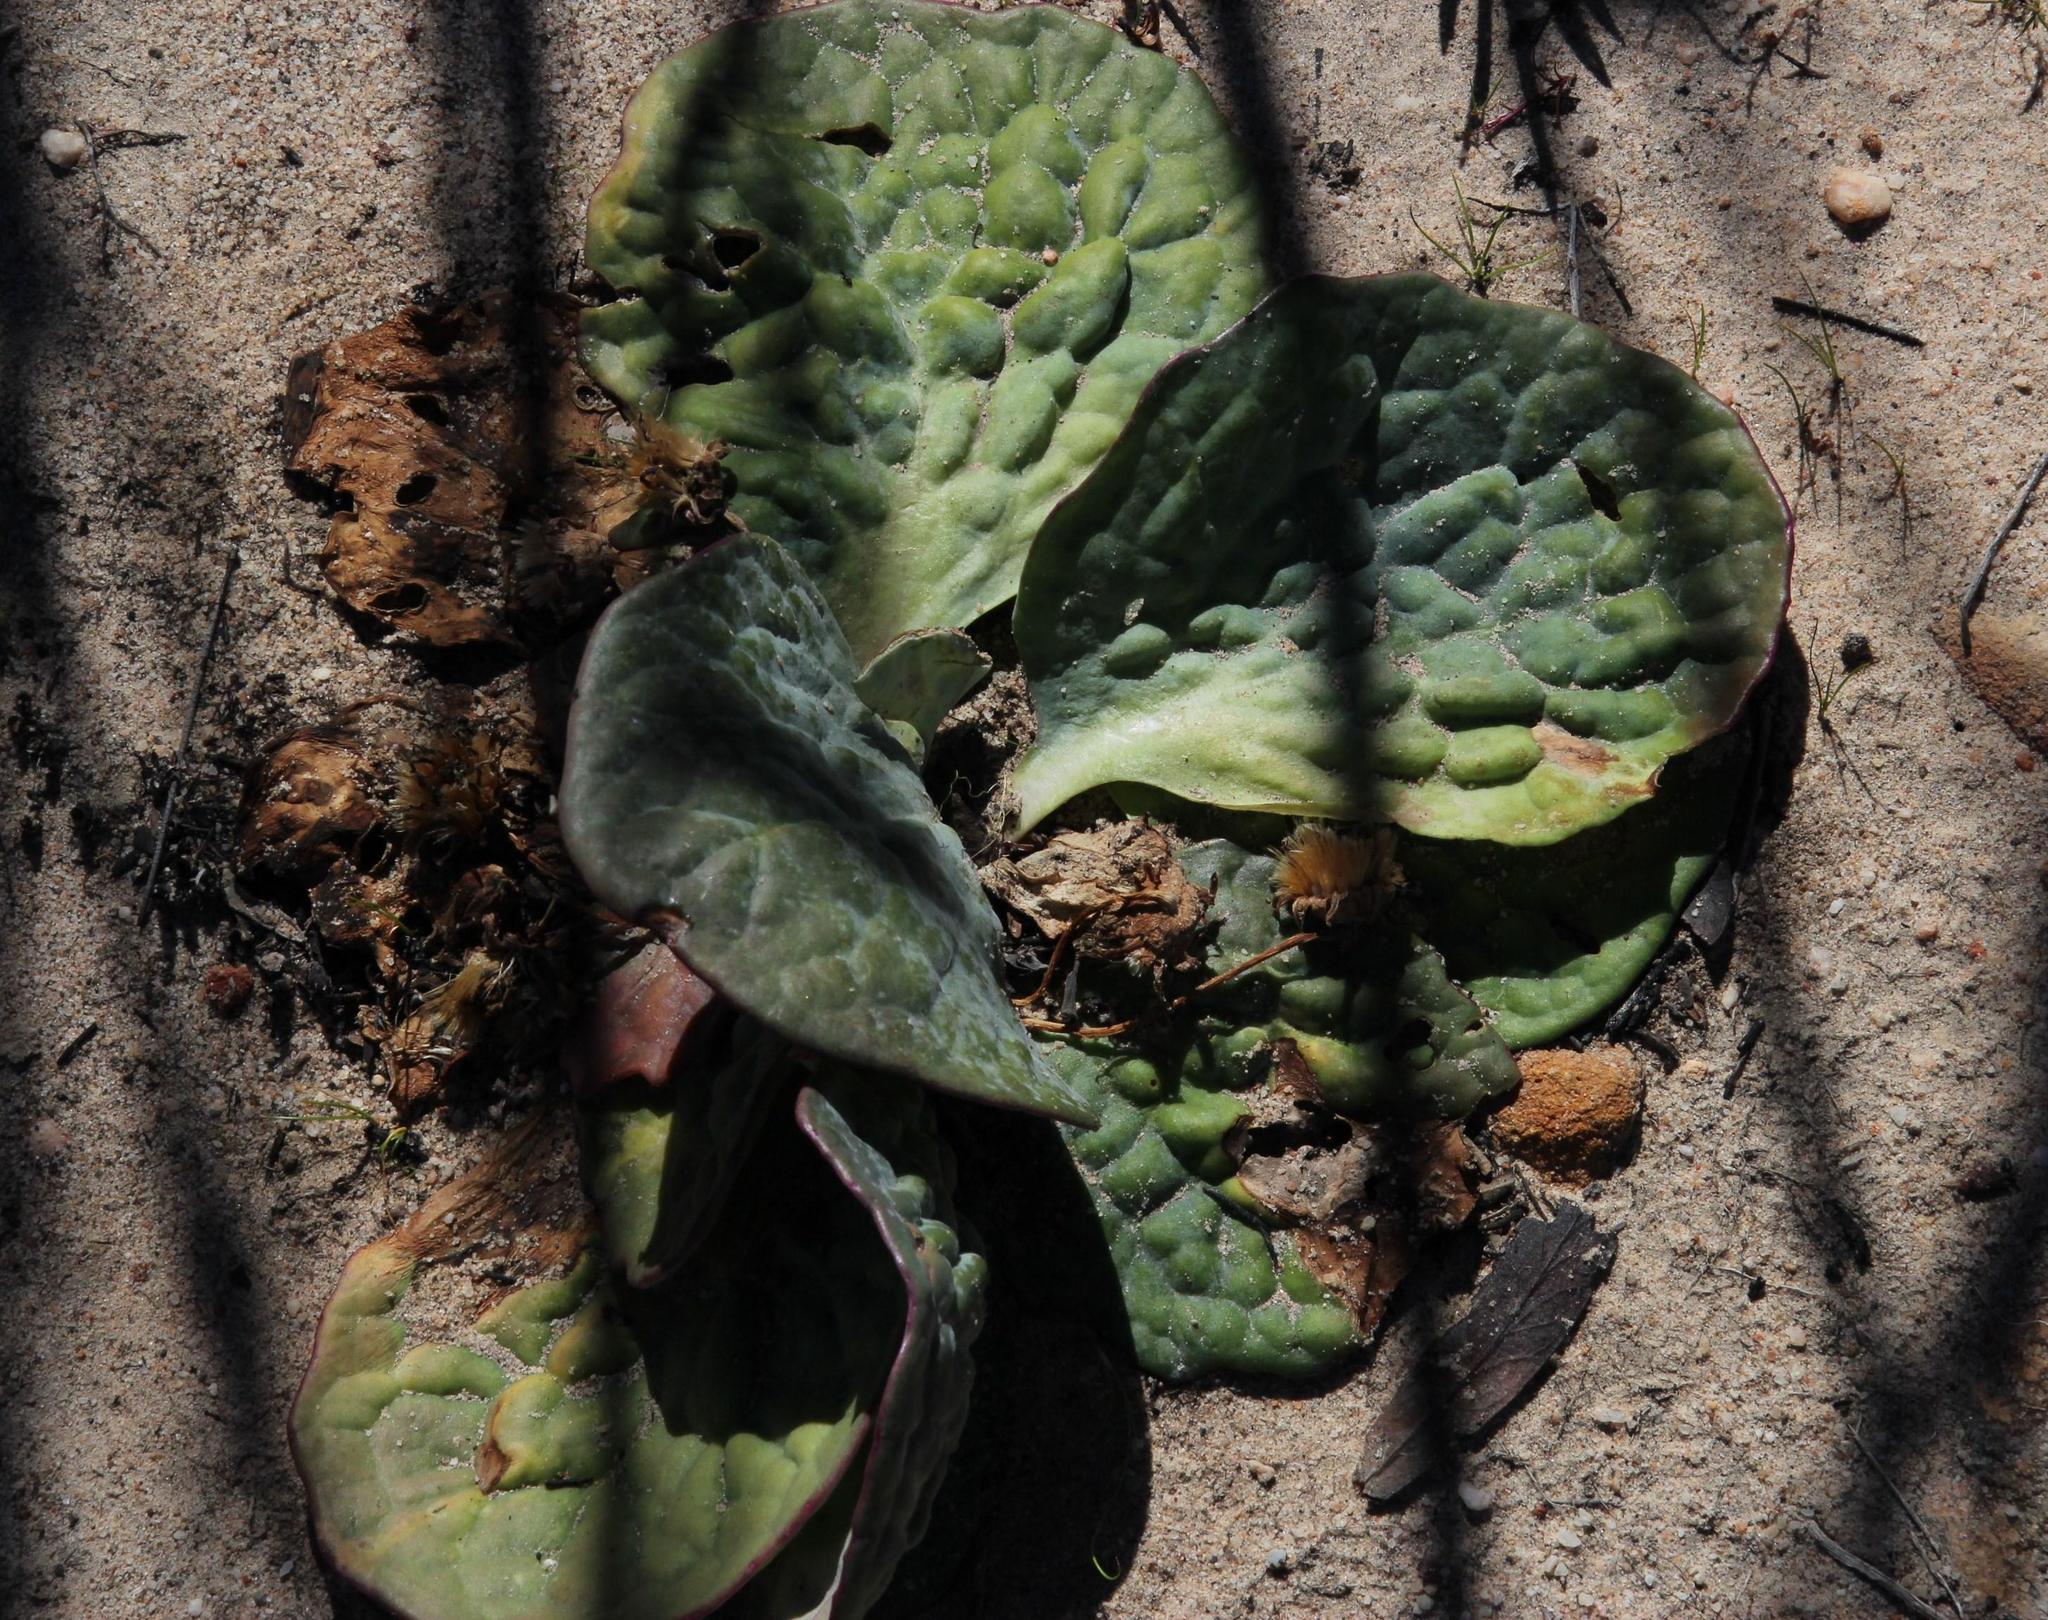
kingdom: Plantae
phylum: Tracheophyta
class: Magnoliopsida
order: Asterales
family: Asteraceae
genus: Othonna
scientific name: Othonna oleracea
